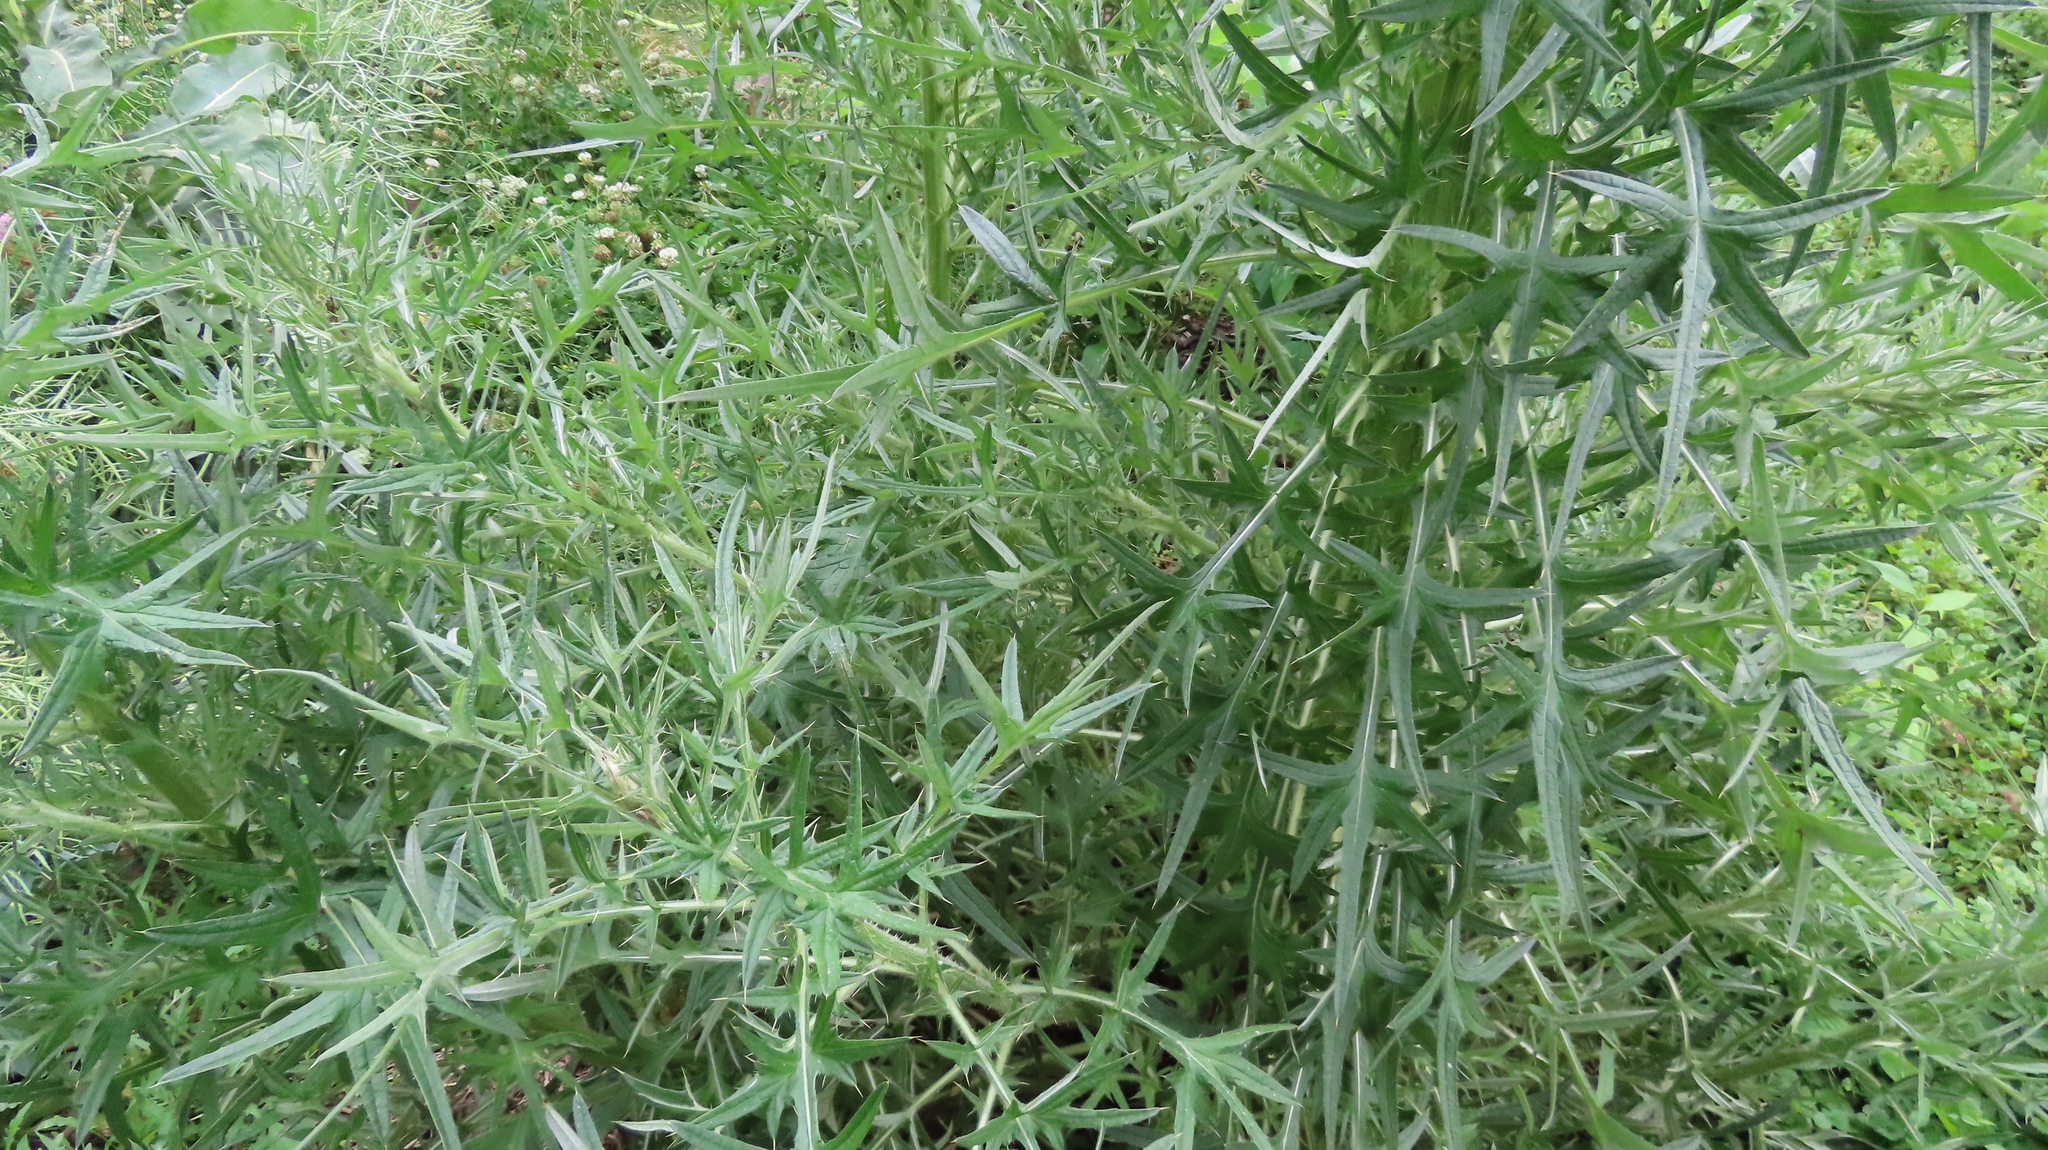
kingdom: Plantae
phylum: Tracheophyta
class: Magnoliopsida
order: Asterales
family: Asteraceae
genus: Cirsium
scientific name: Cirsium vulgare
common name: Bull thistle
